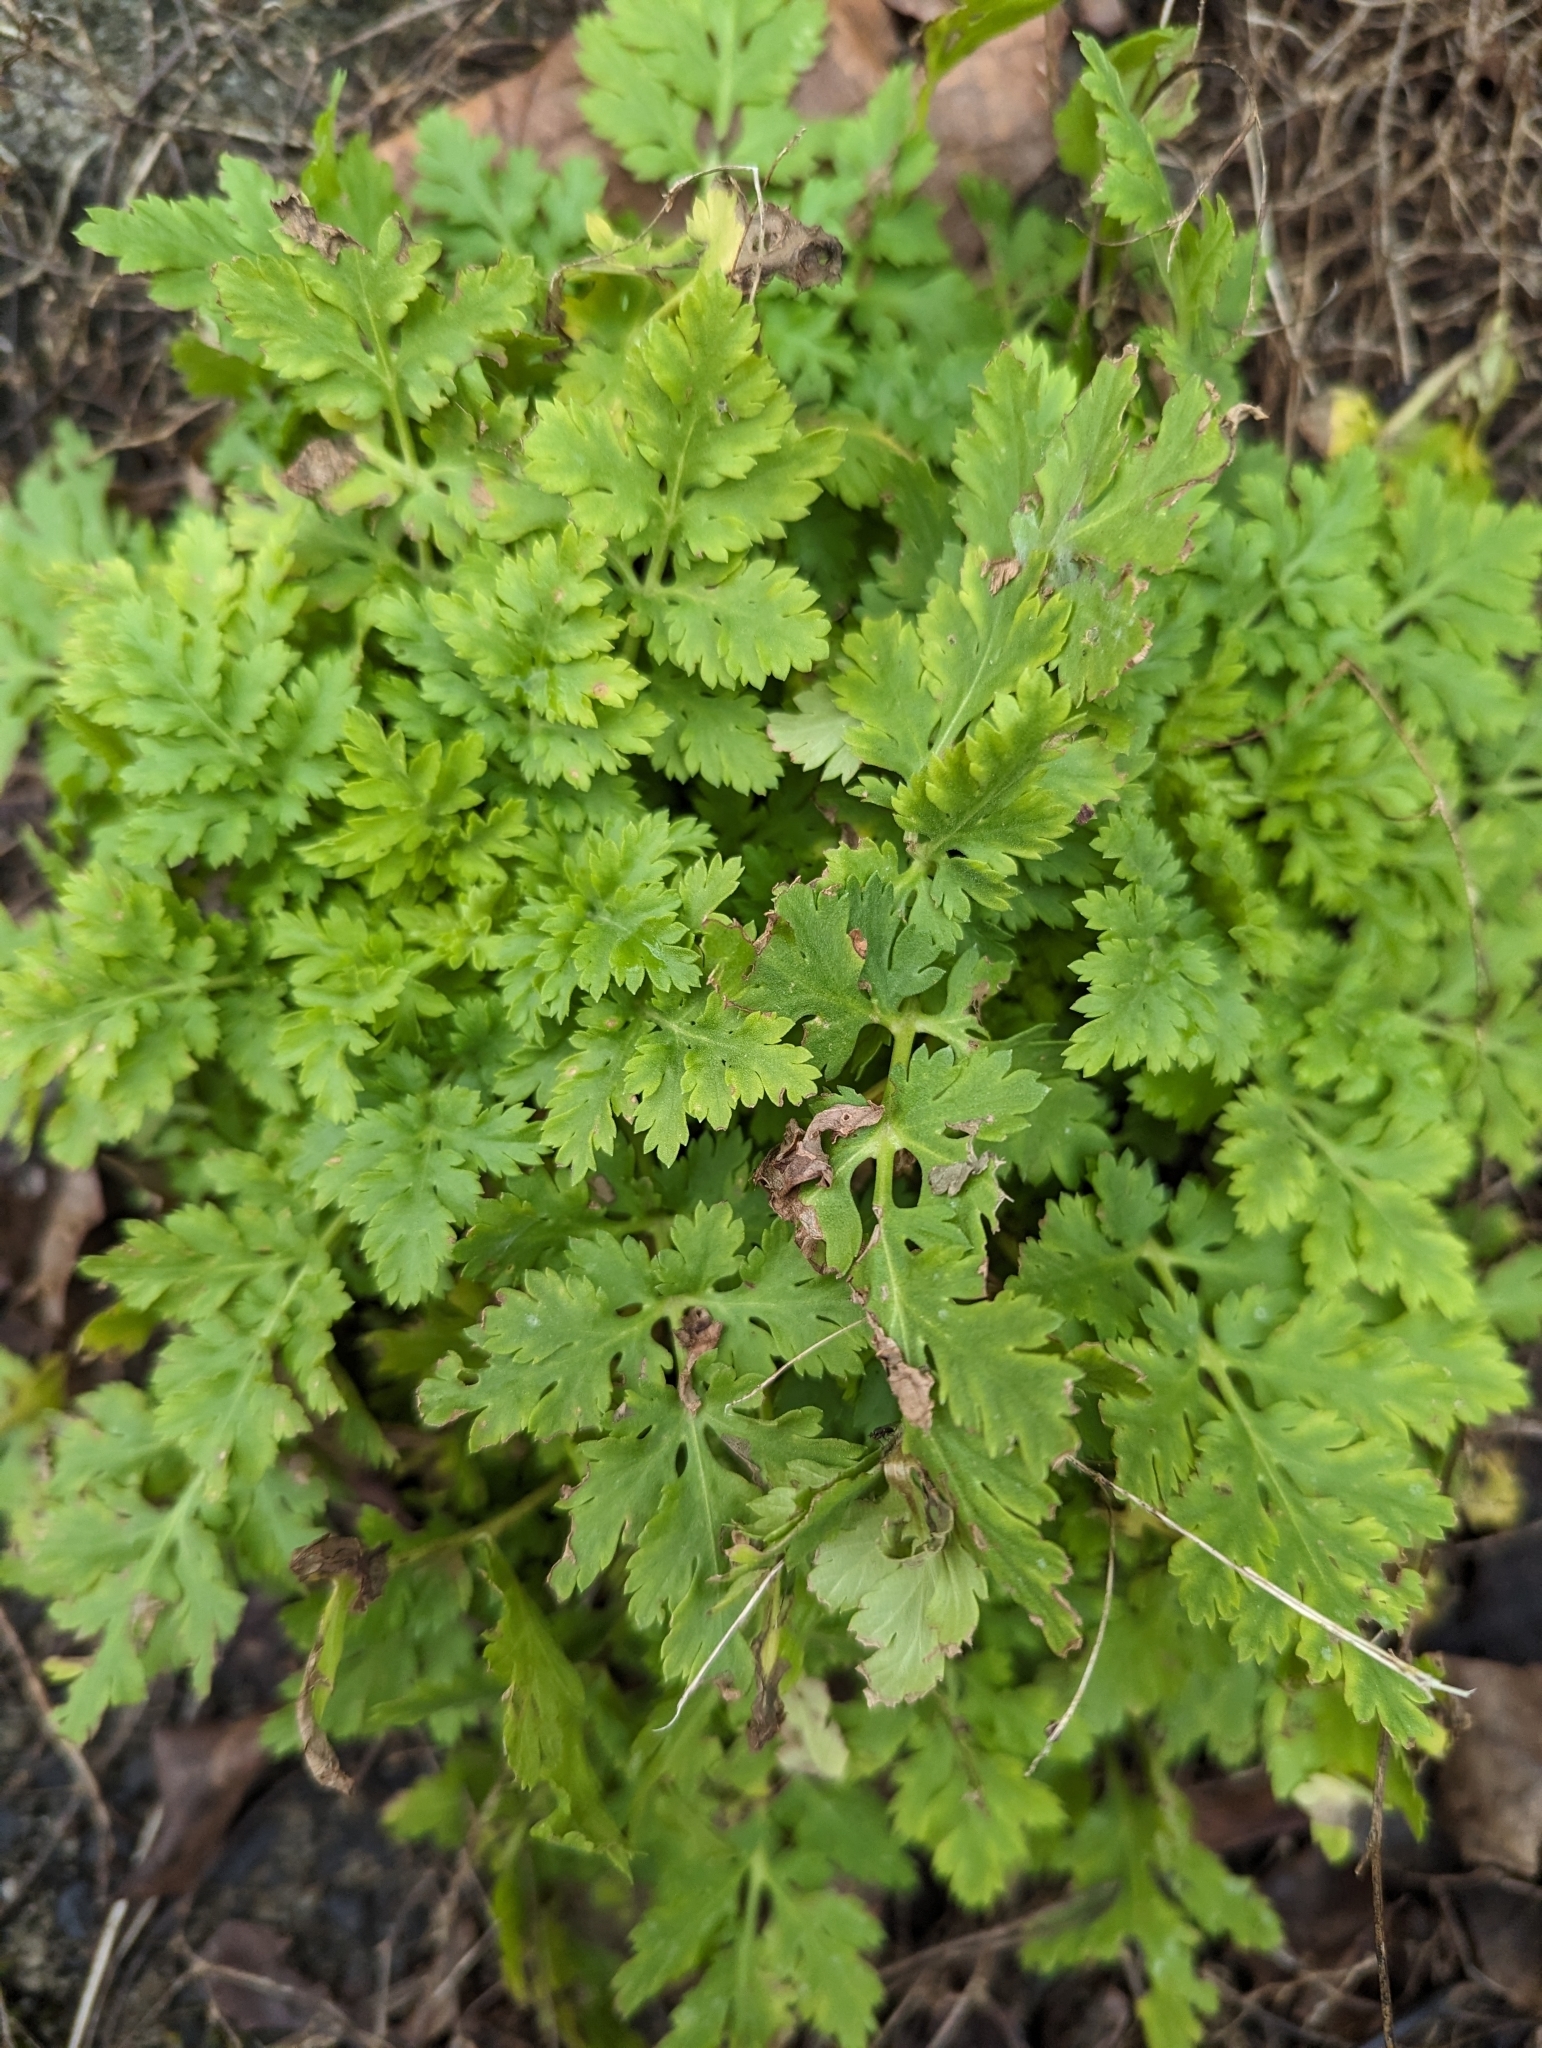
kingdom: Plantae
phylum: Tracheophyta
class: Magnoliopsida
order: Asterales
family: Asteraceae
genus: Tanacetum
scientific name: Tanacetum parthenium
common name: Feverfew
